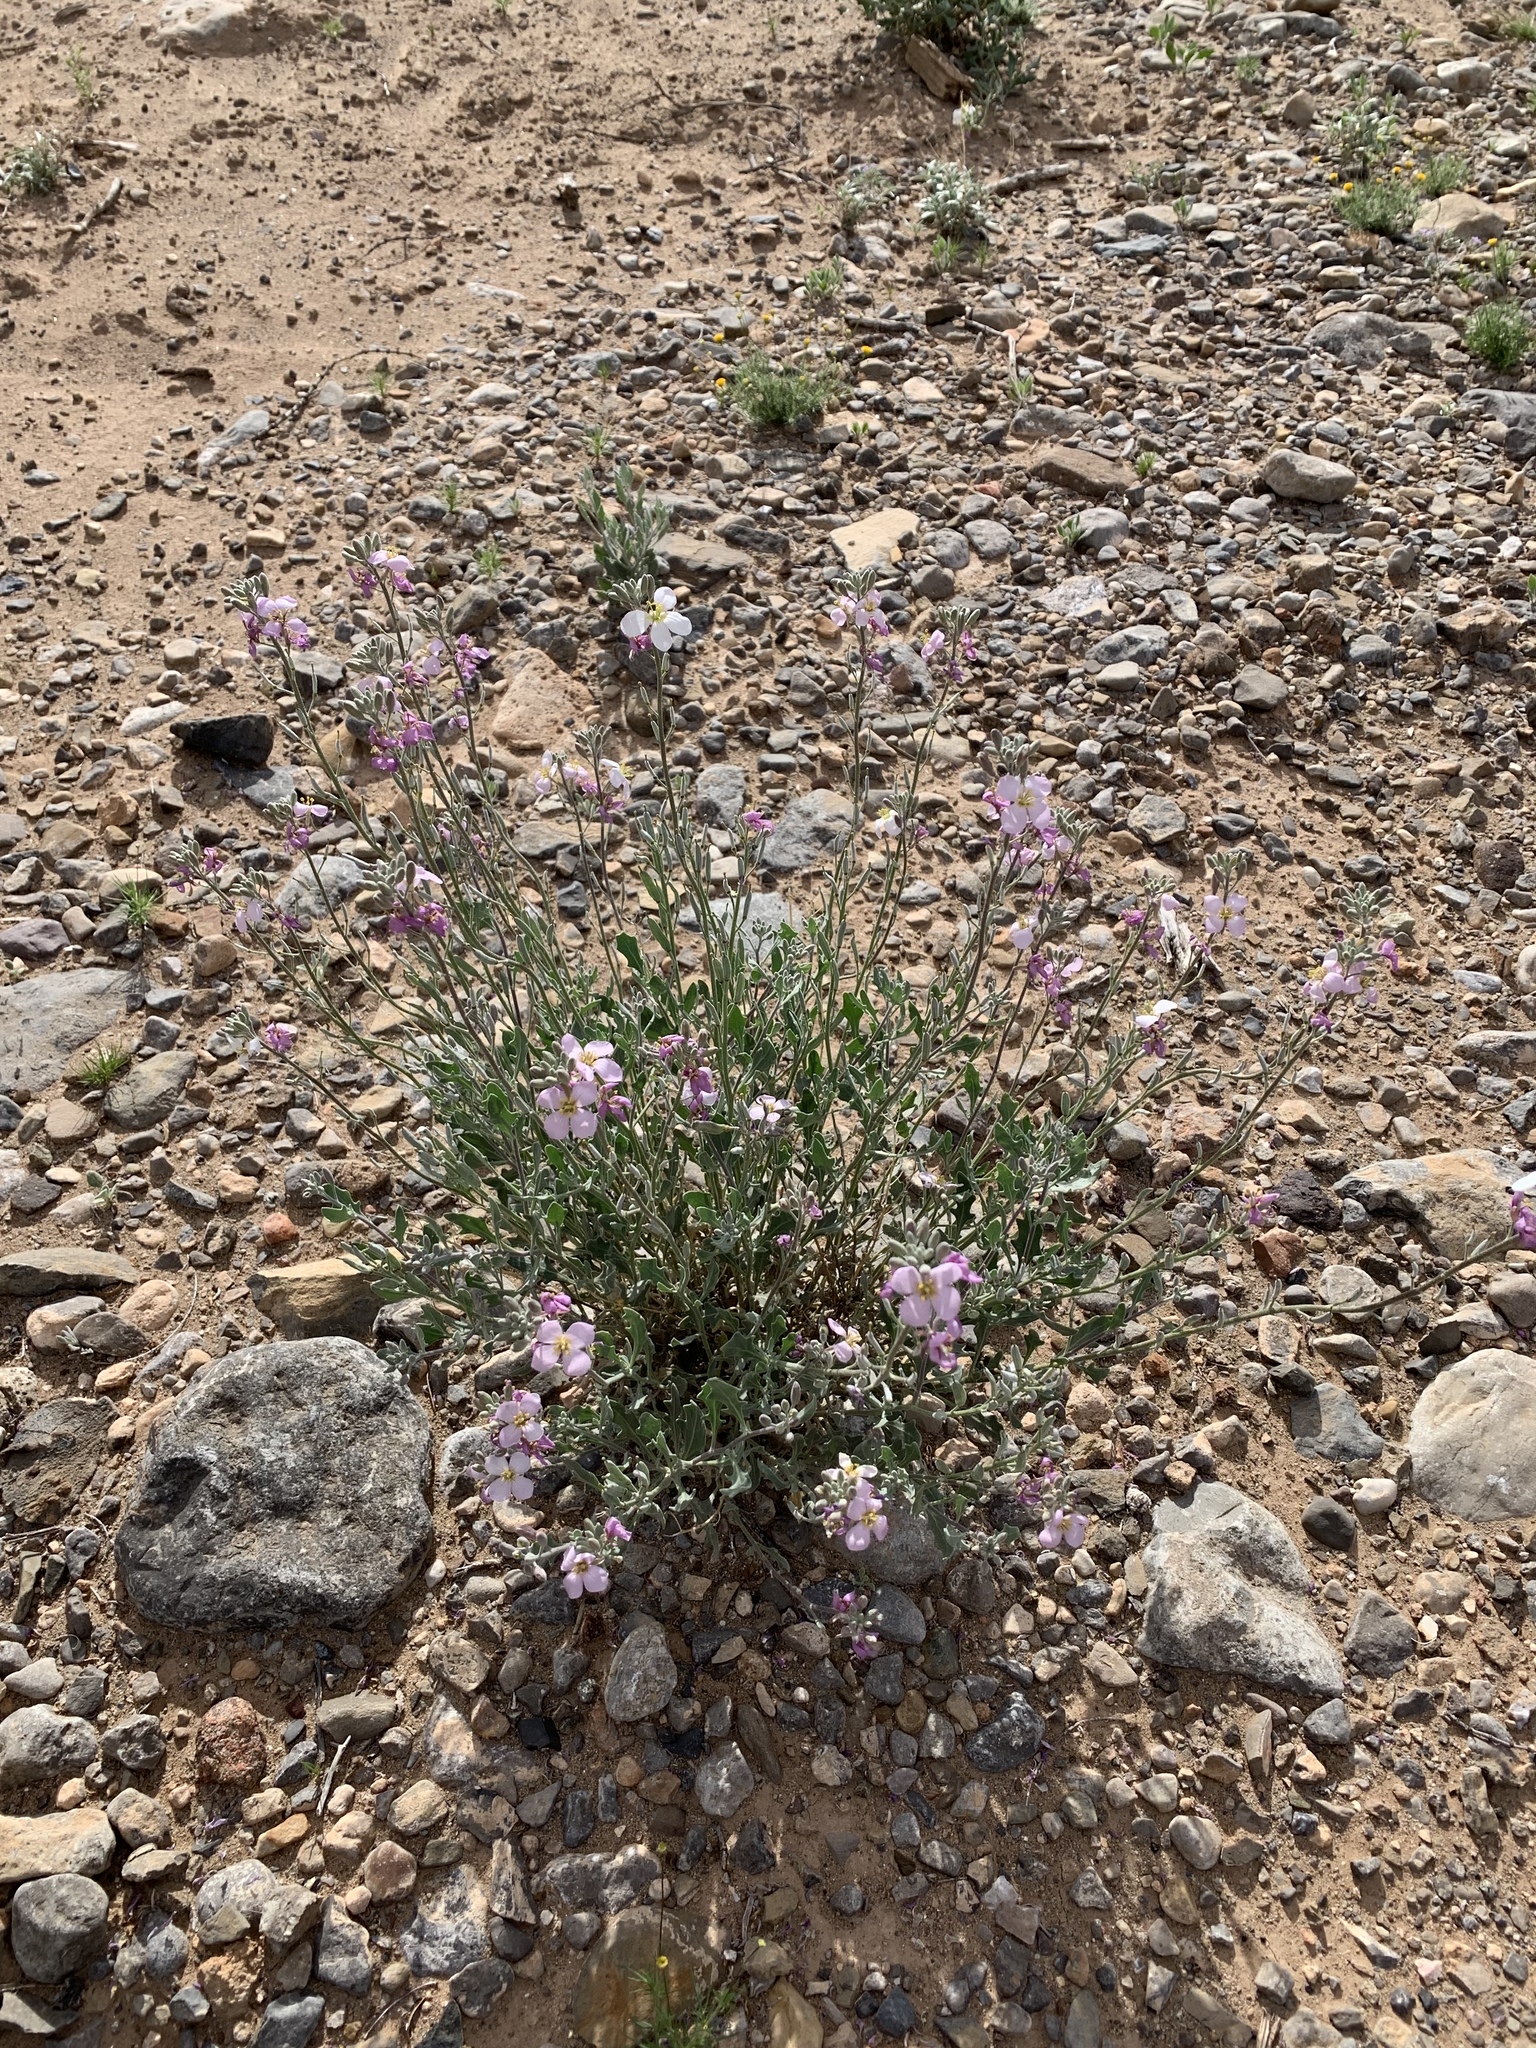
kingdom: Plantae
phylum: Tracheophyta
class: Magnoliopsida
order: Brassicales
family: Brassicaceae
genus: Nerisyrenia
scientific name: Nerisyrenia camporum
